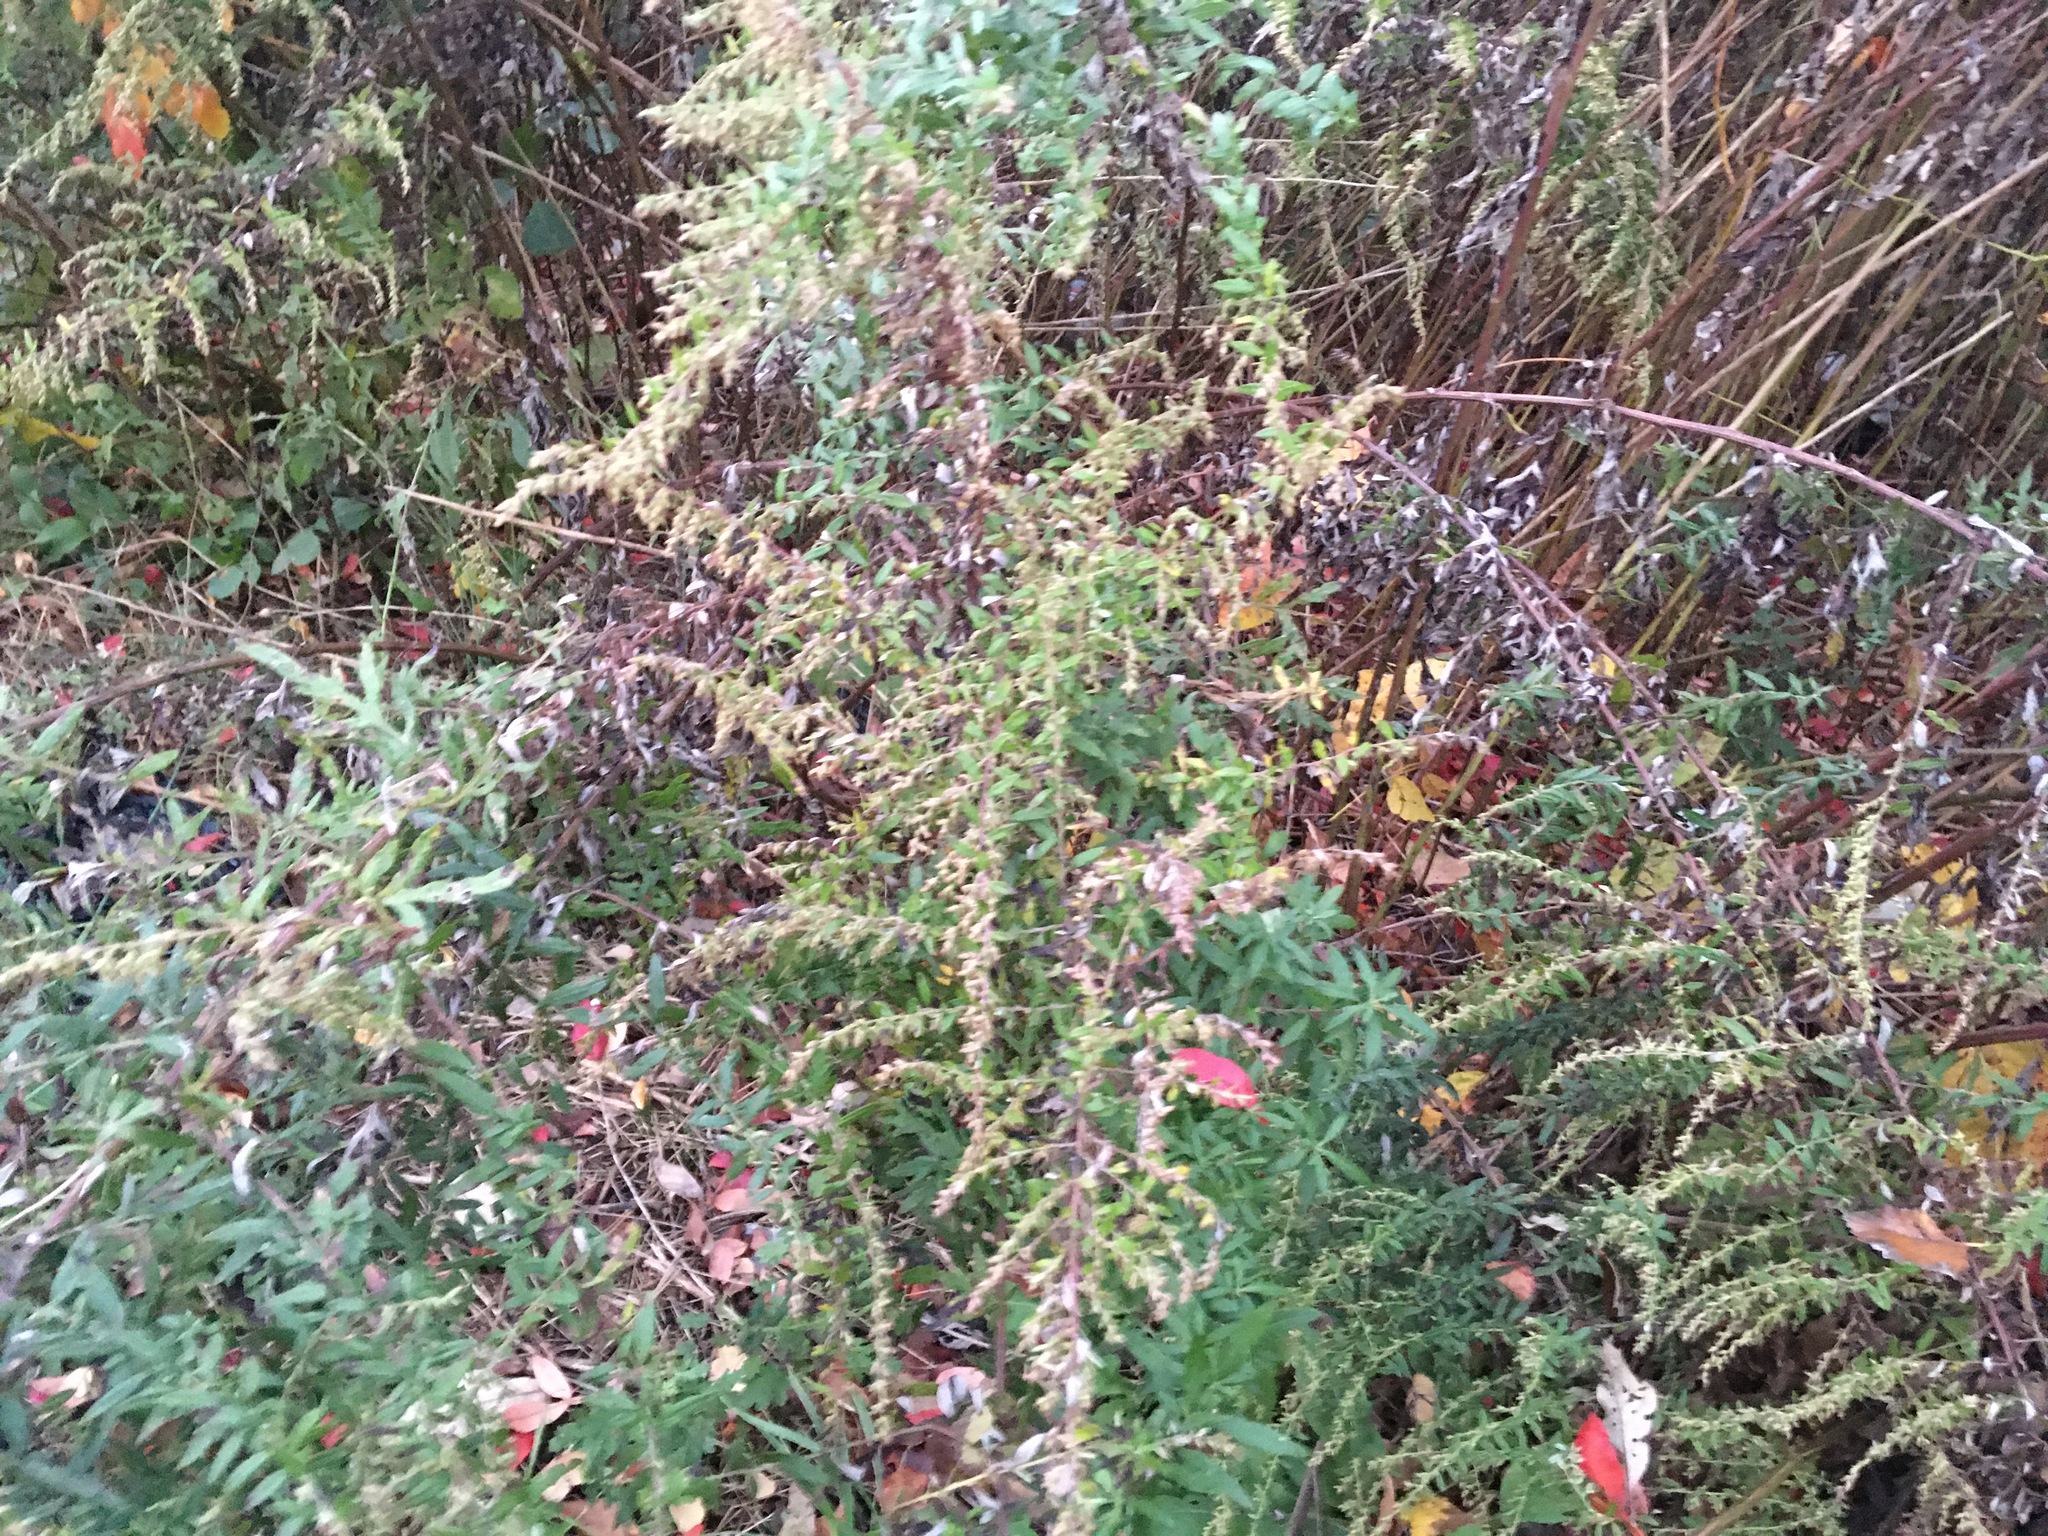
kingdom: Plantae
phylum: Tracheophyta
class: Magnoliopsida
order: Asterales
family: Asteraceae
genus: Artemisia
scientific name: Artemisia vulgaris
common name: Mugwort
